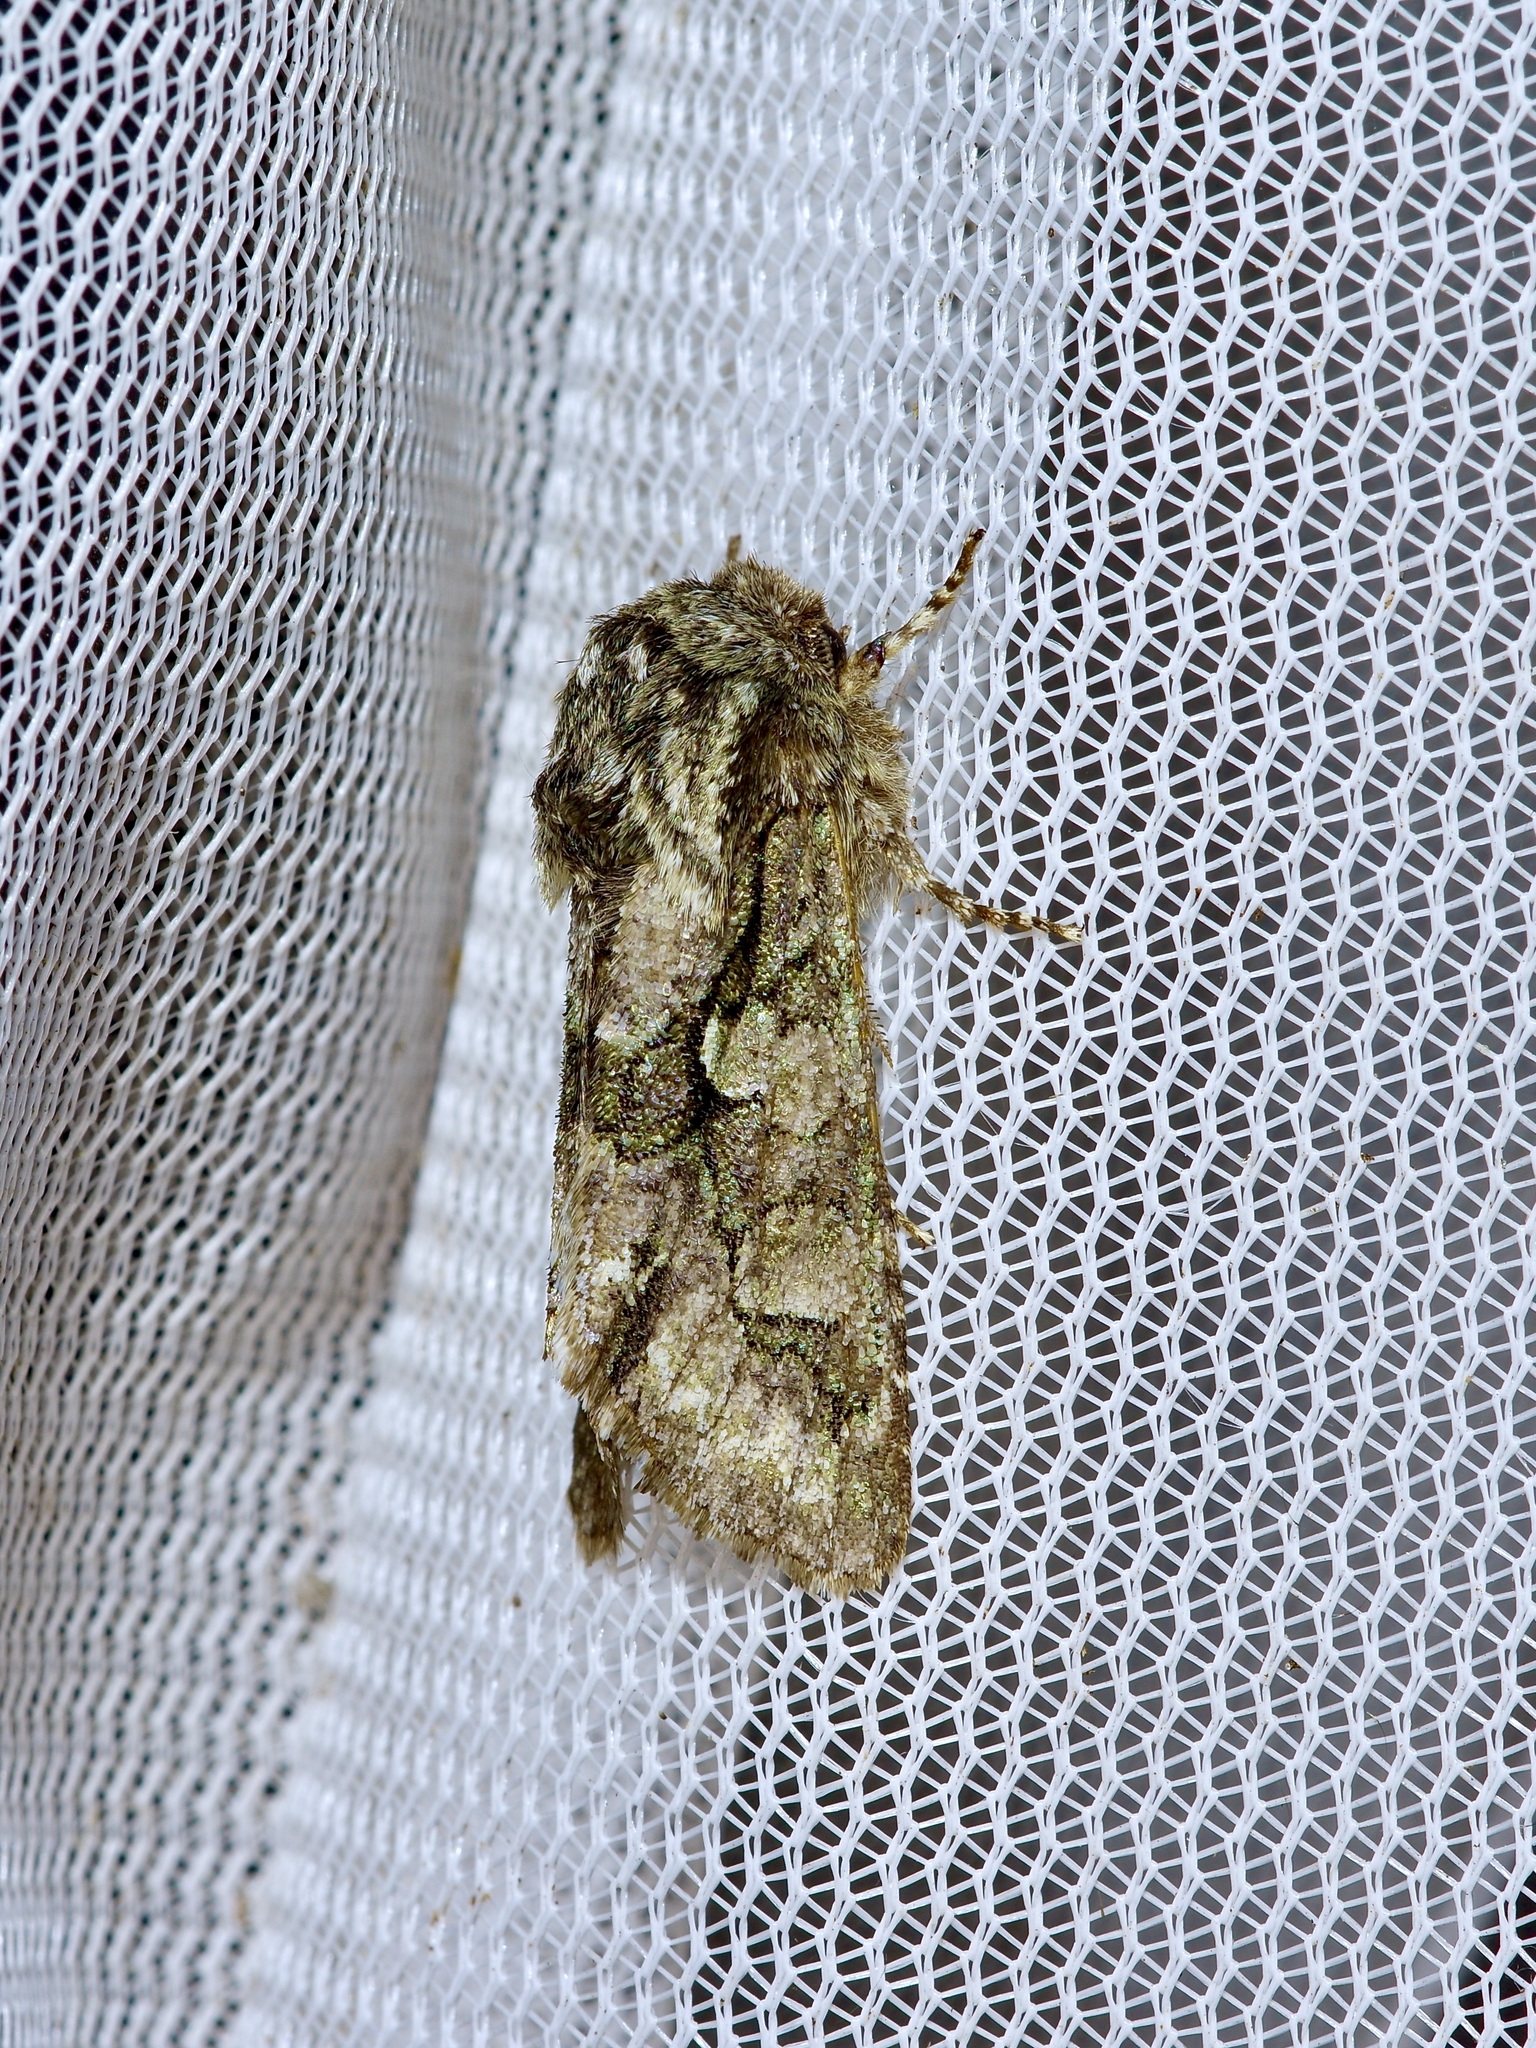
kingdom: Animalia
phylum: Arthropoda
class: Insecta
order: Lepidoptera
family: Noctuidae
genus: Psaphida
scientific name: Psaphida resumens
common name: Figure-eight sallow
